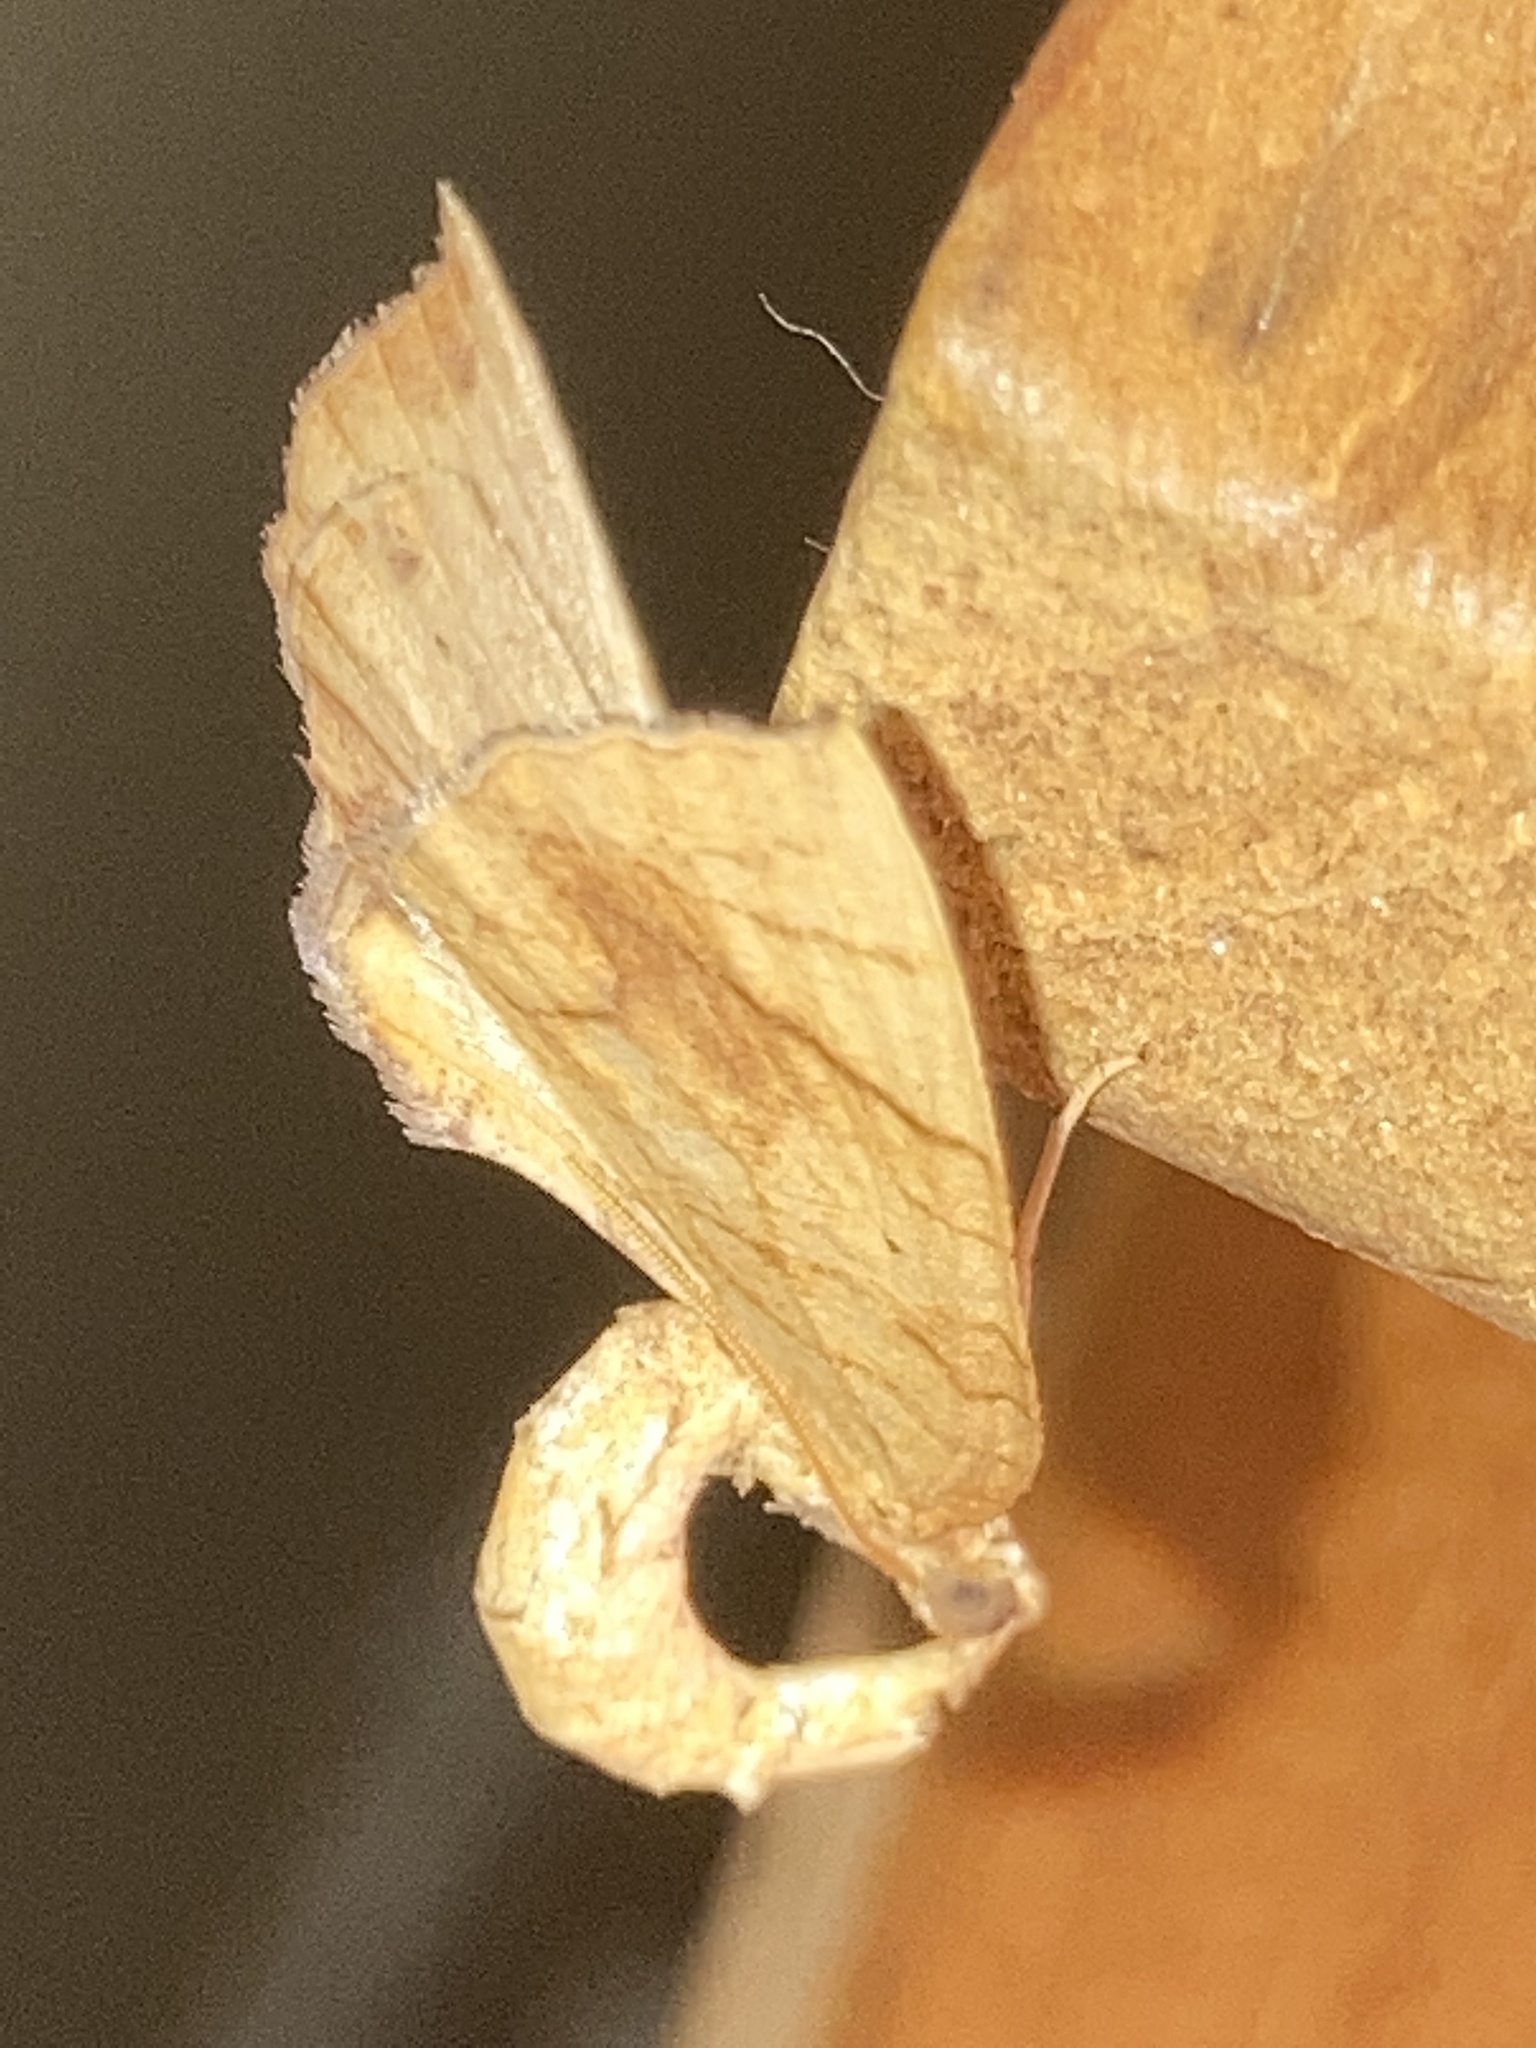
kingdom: Animalia
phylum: Arthropoda
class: Insecta
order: Lepidoptera
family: Geometridae
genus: Eulithis
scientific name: Eulithis
